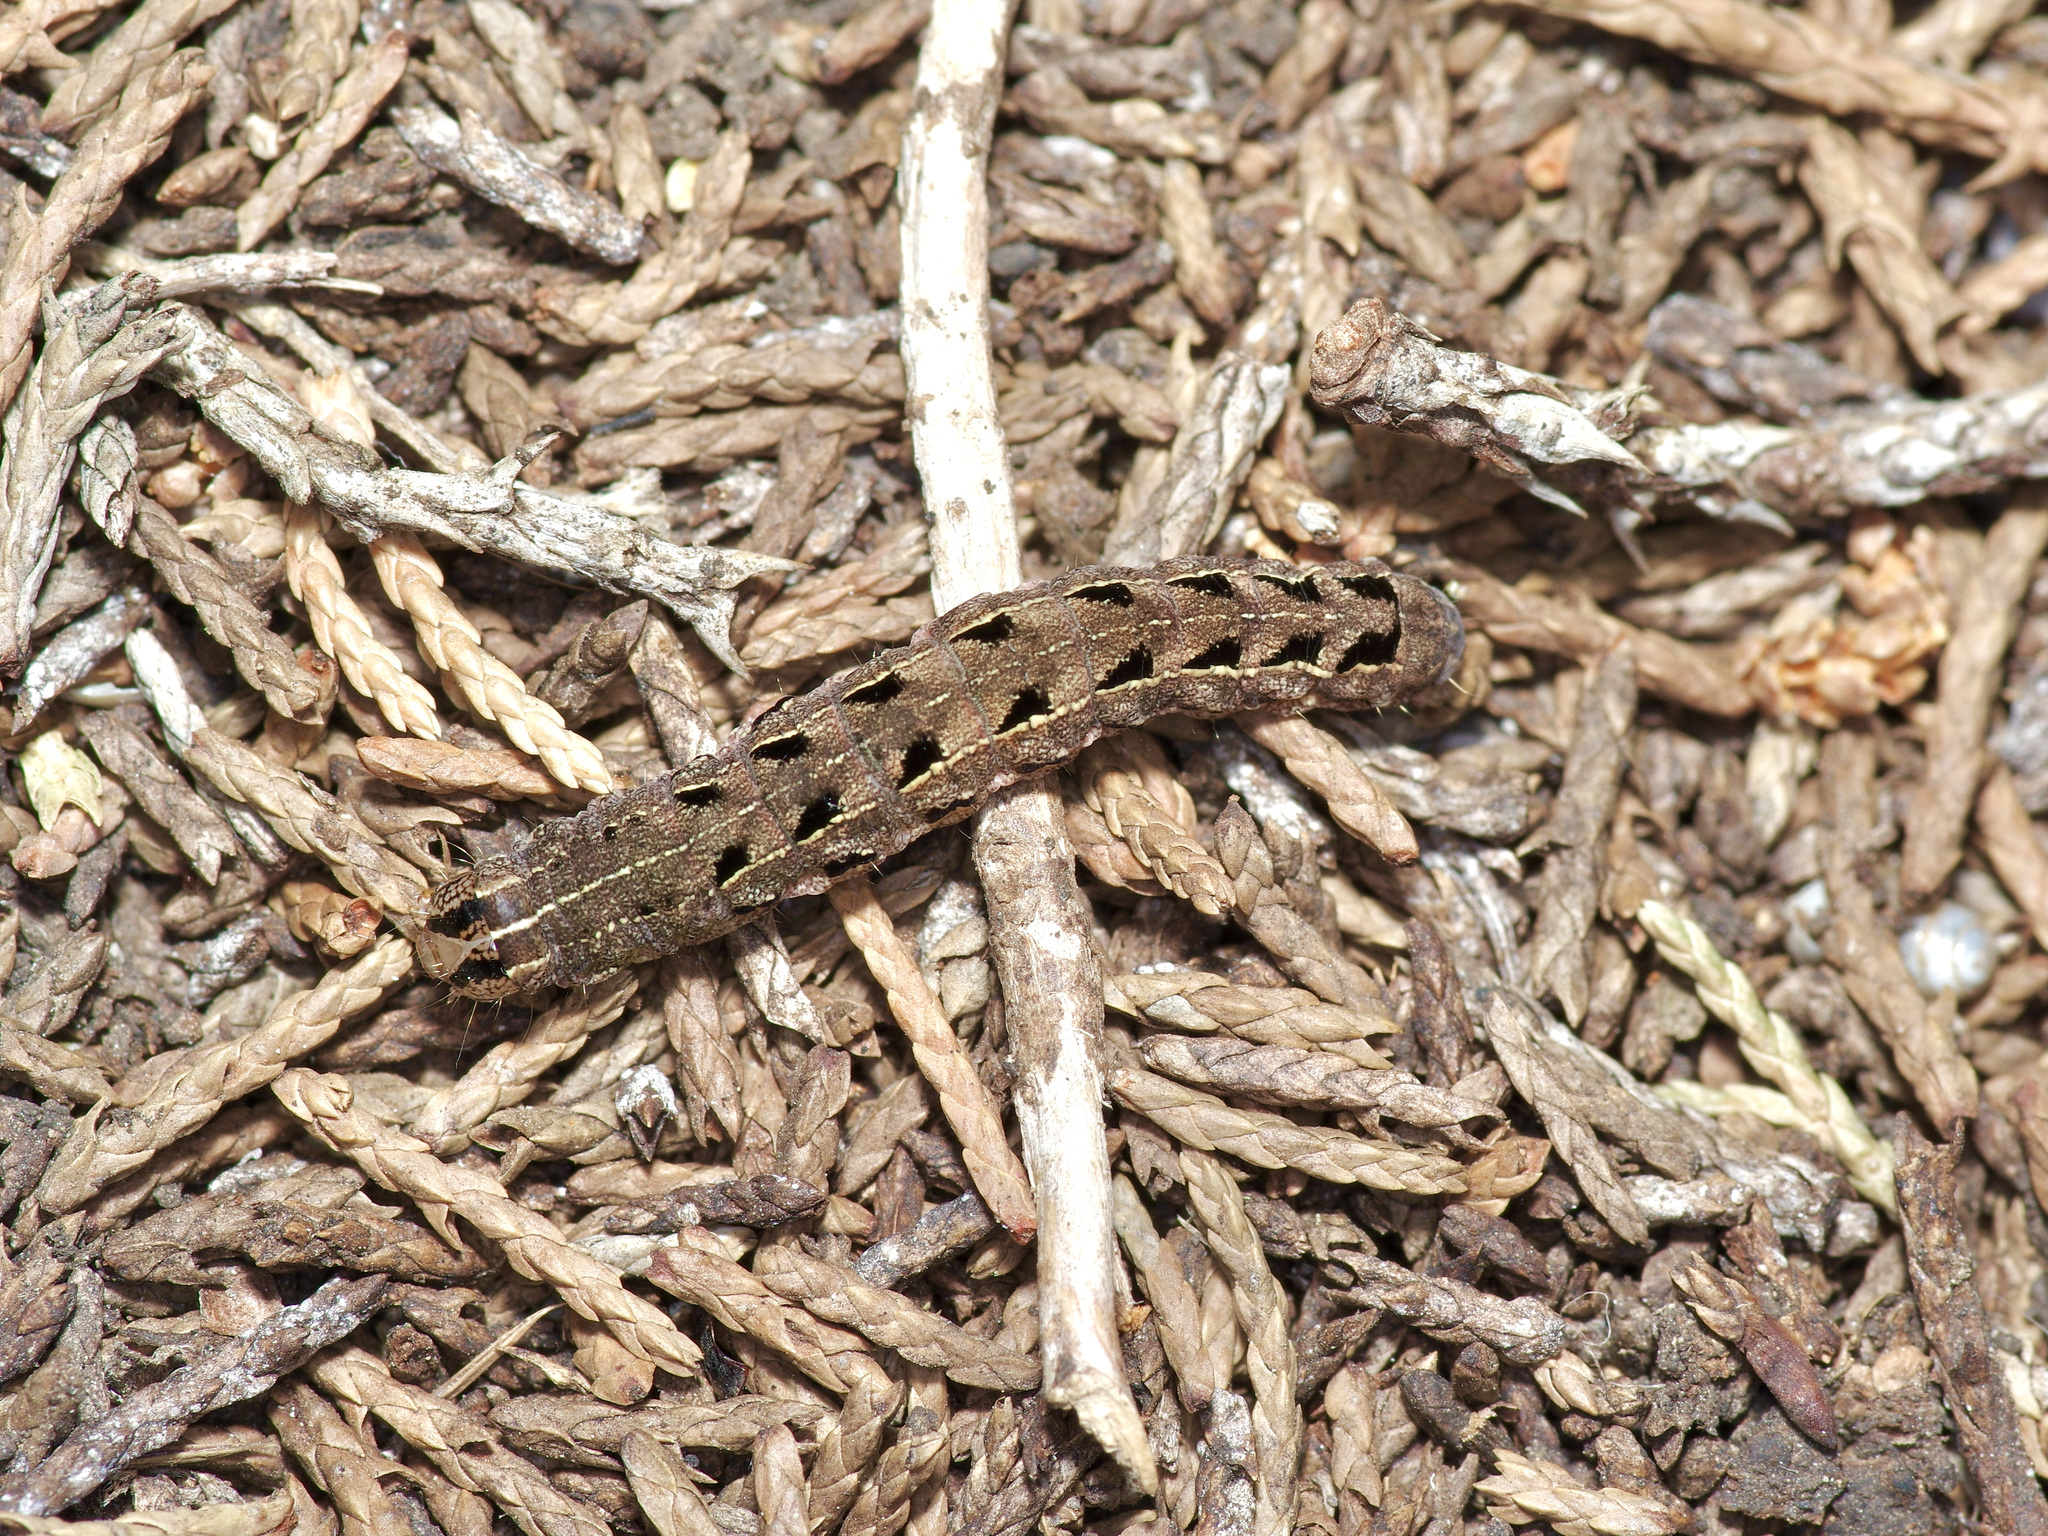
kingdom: Animalia
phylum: Arthropoda
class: Insecta
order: Lepidoptera
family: Noctuidae
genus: Spodoptera
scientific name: Spodoptera ornithogalli
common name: Yellow-striped armyworm
